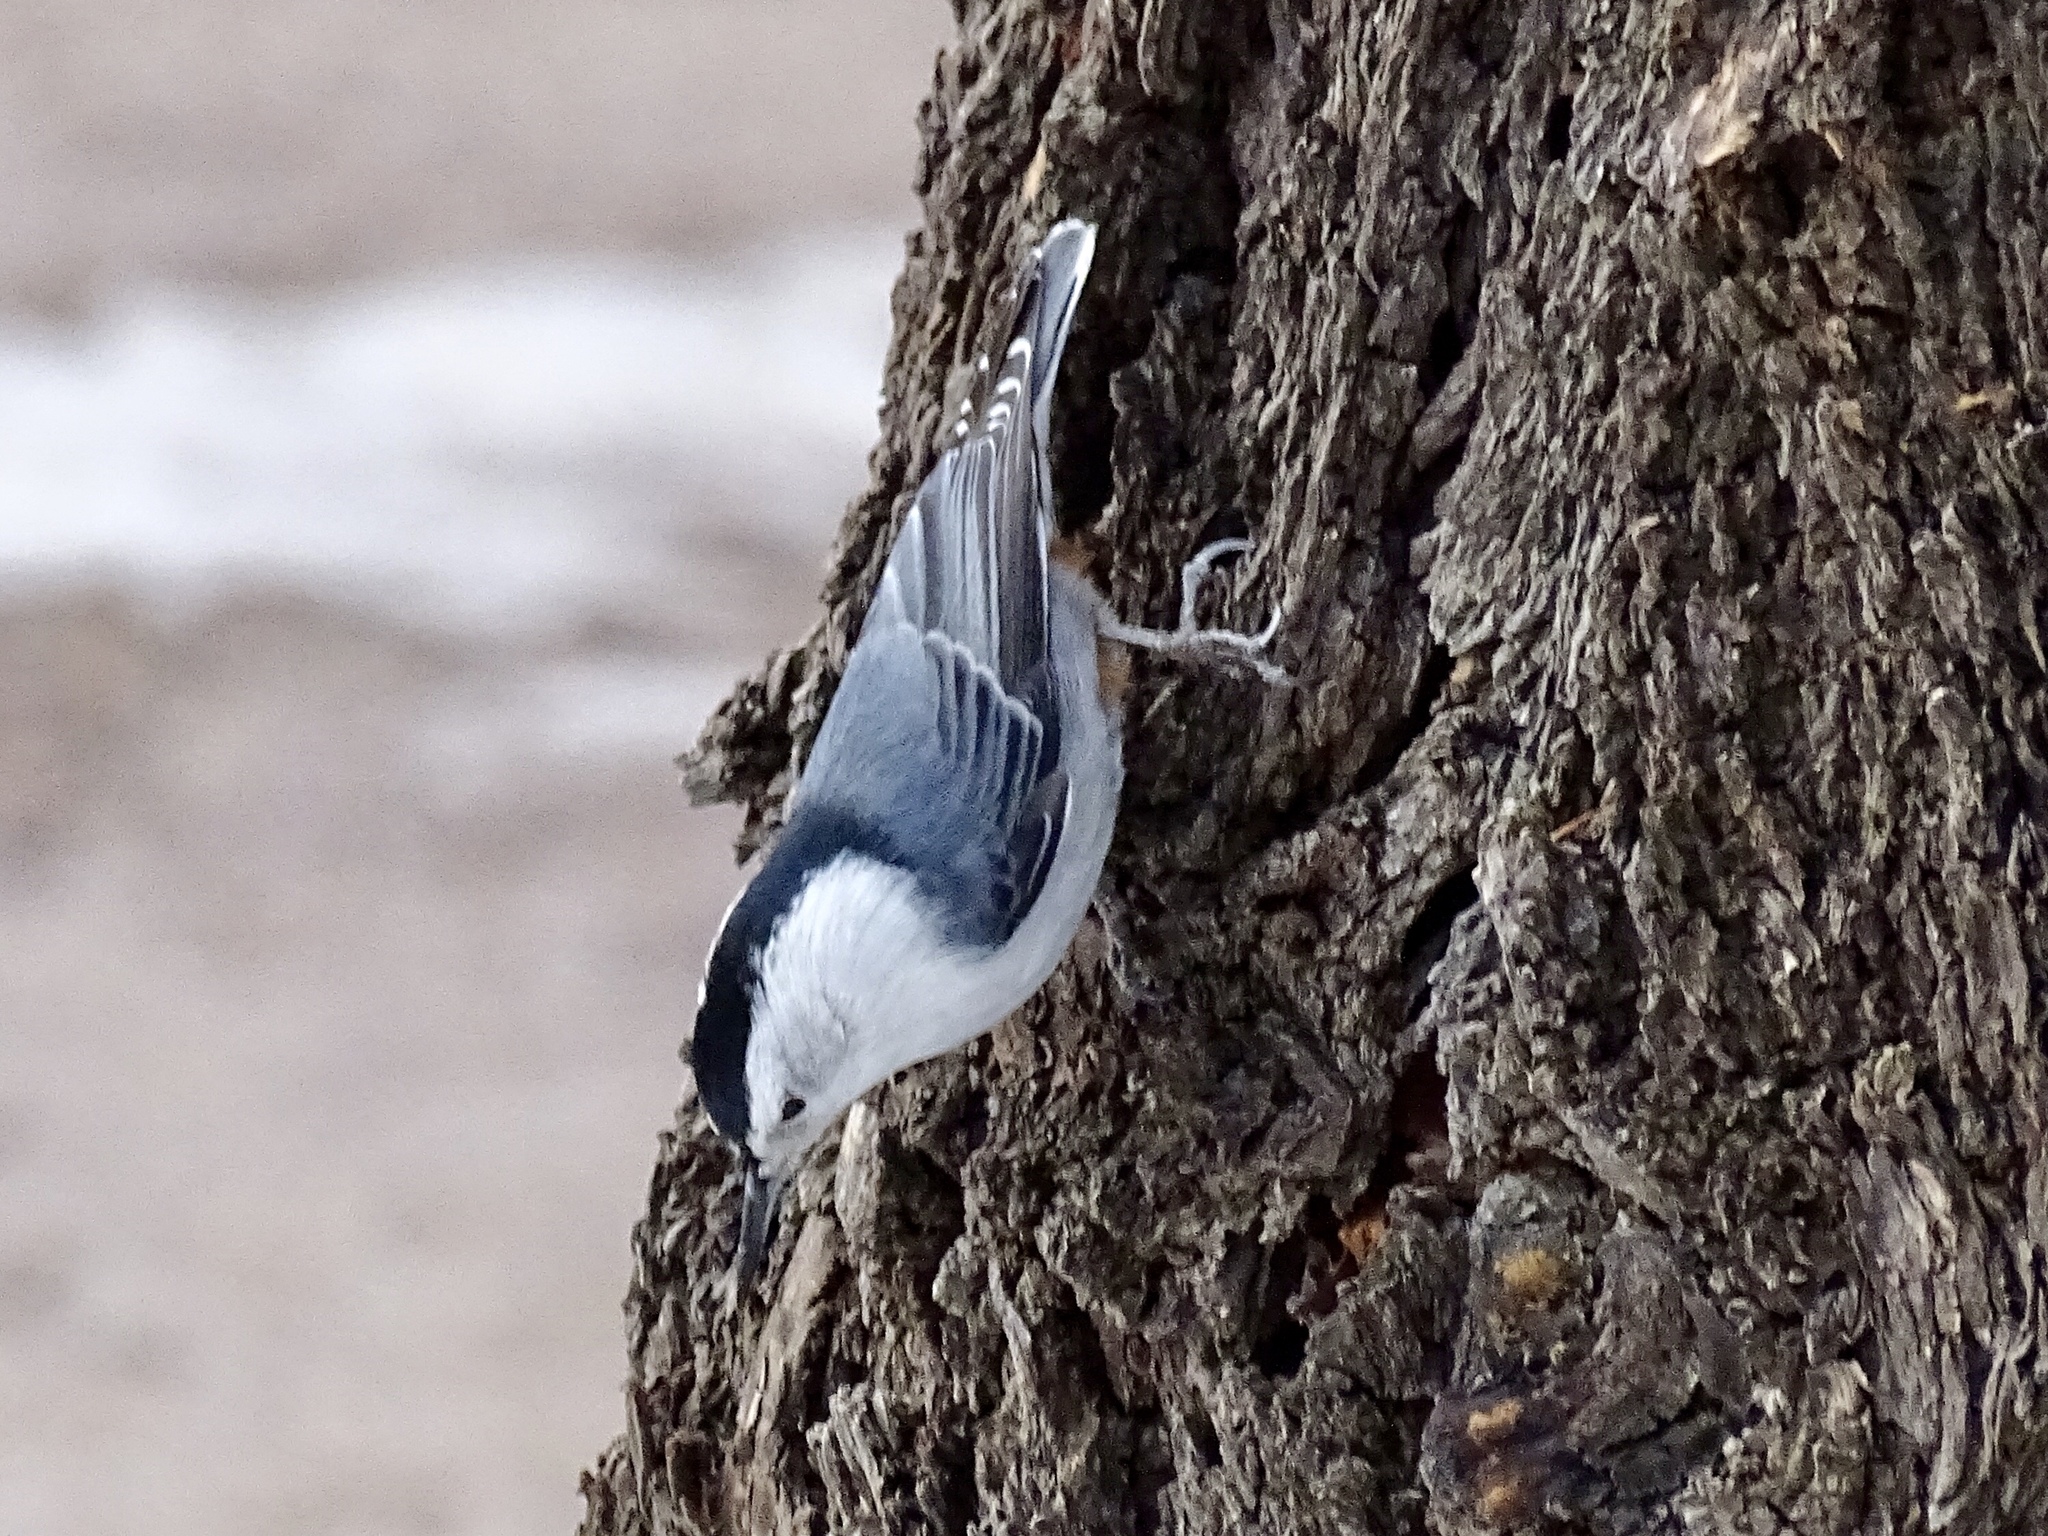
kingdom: Animalia
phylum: Chordata
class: Aves
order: Passeriformes
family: Sittidae
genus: Sitta
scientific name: Sitta carolinensis
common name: White-breasted nuthatch
